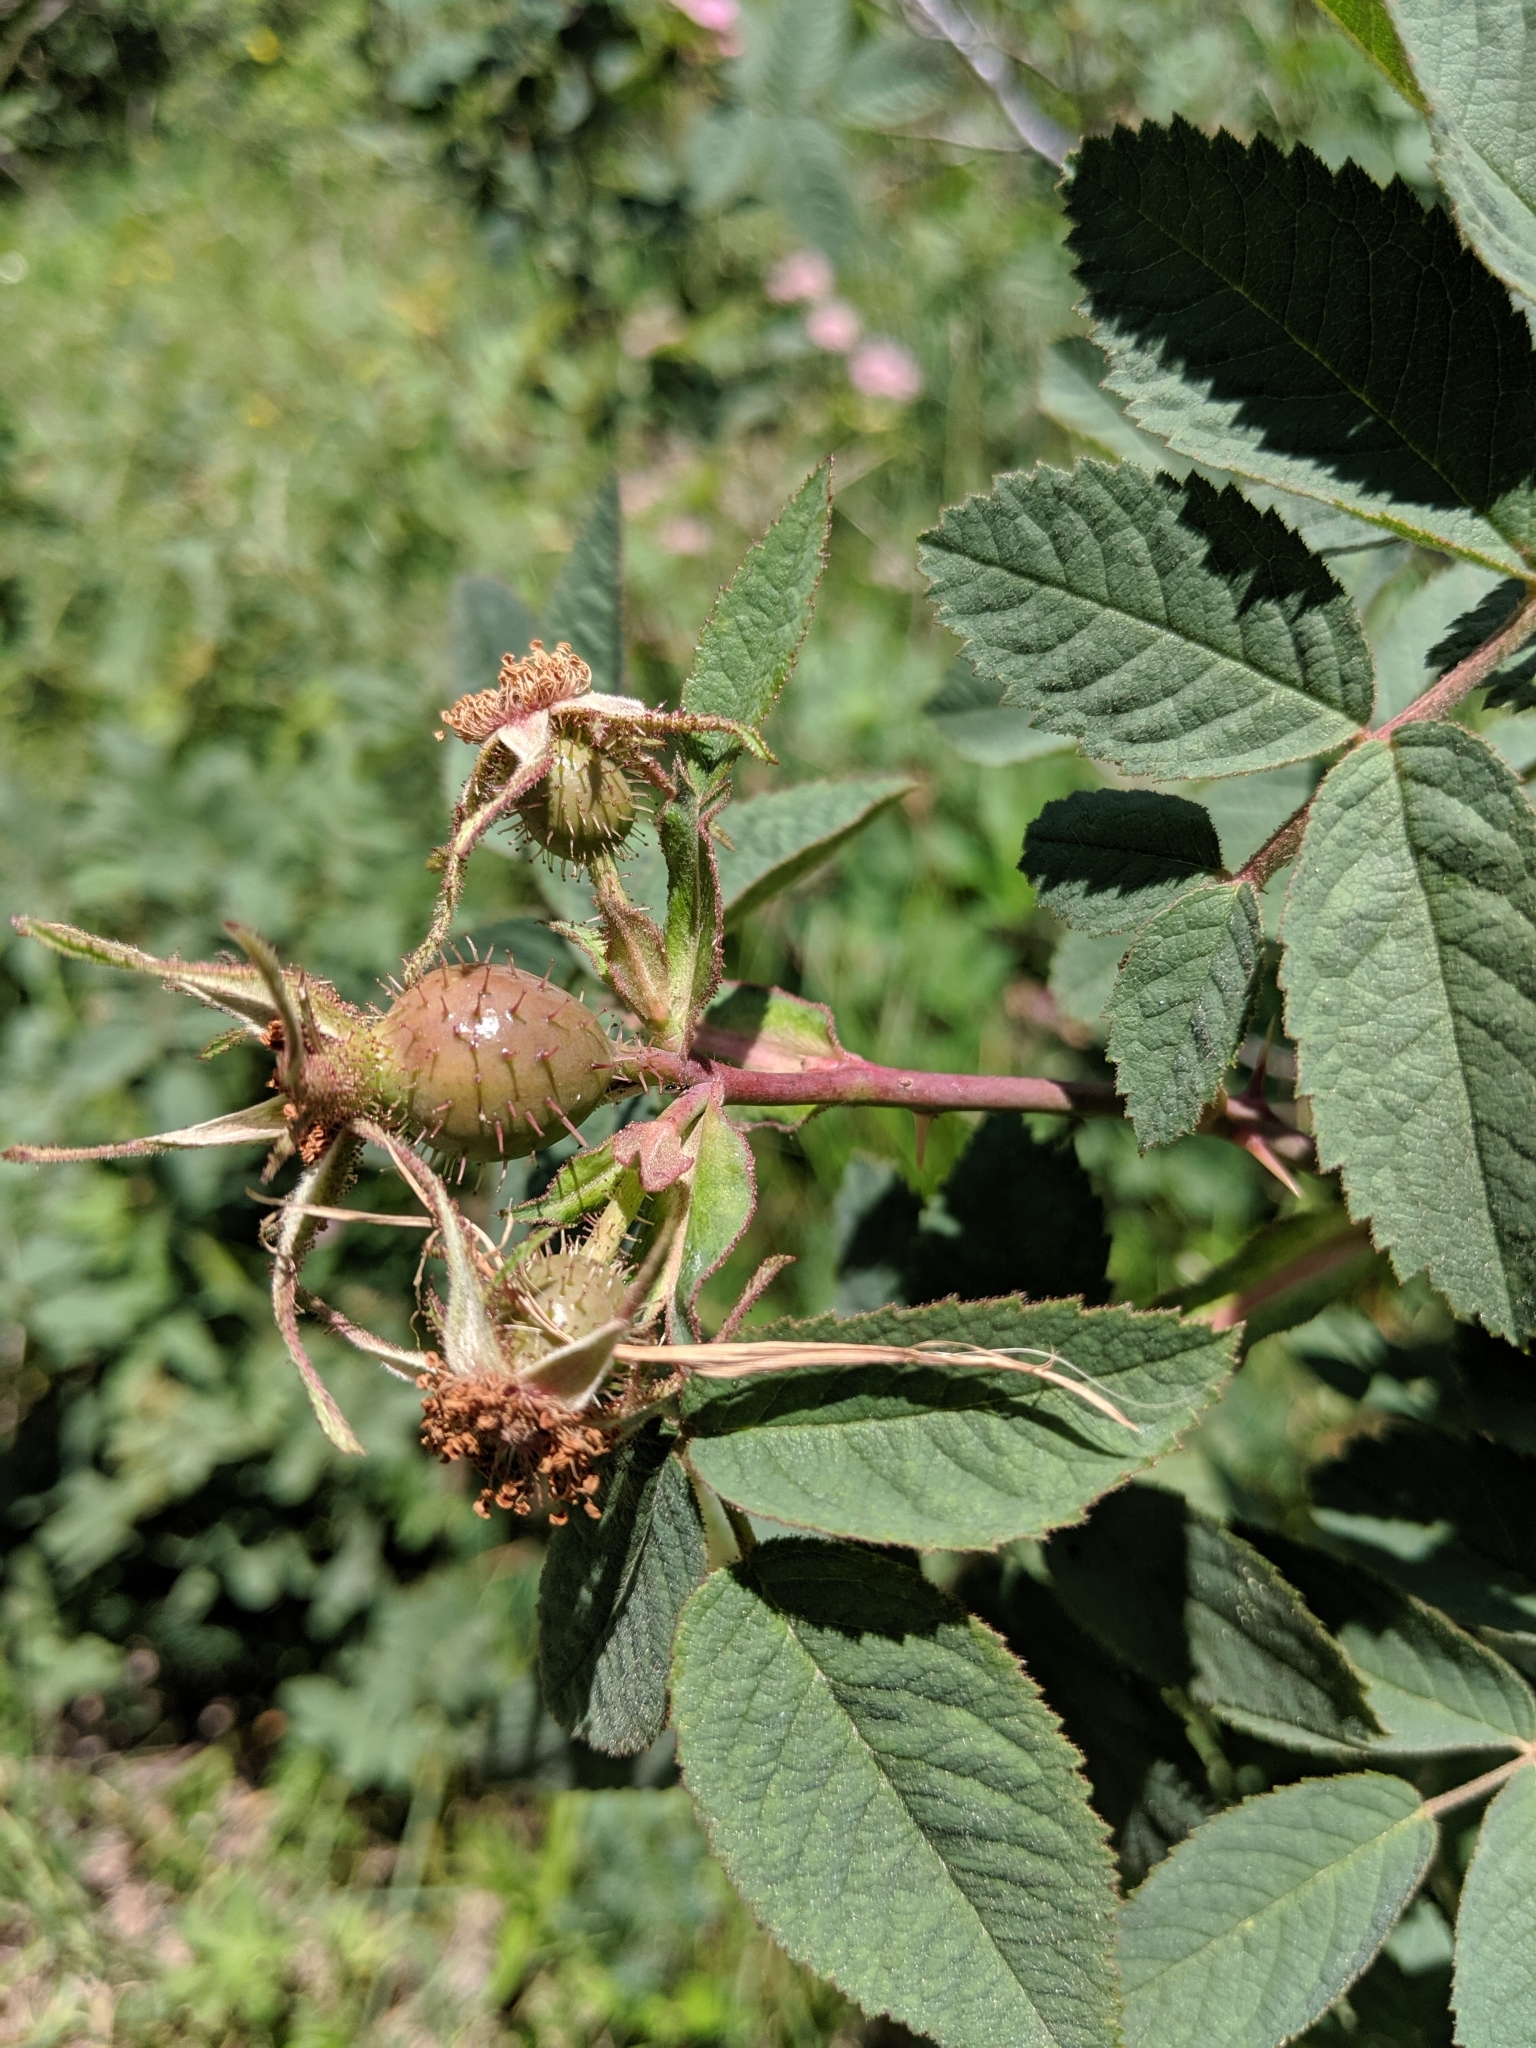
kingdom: Plantae
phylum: Tracheophyta
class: Magnoliopsida
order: Rosales
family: Rosaceae
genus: Rosa
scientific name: Rosa villosa
